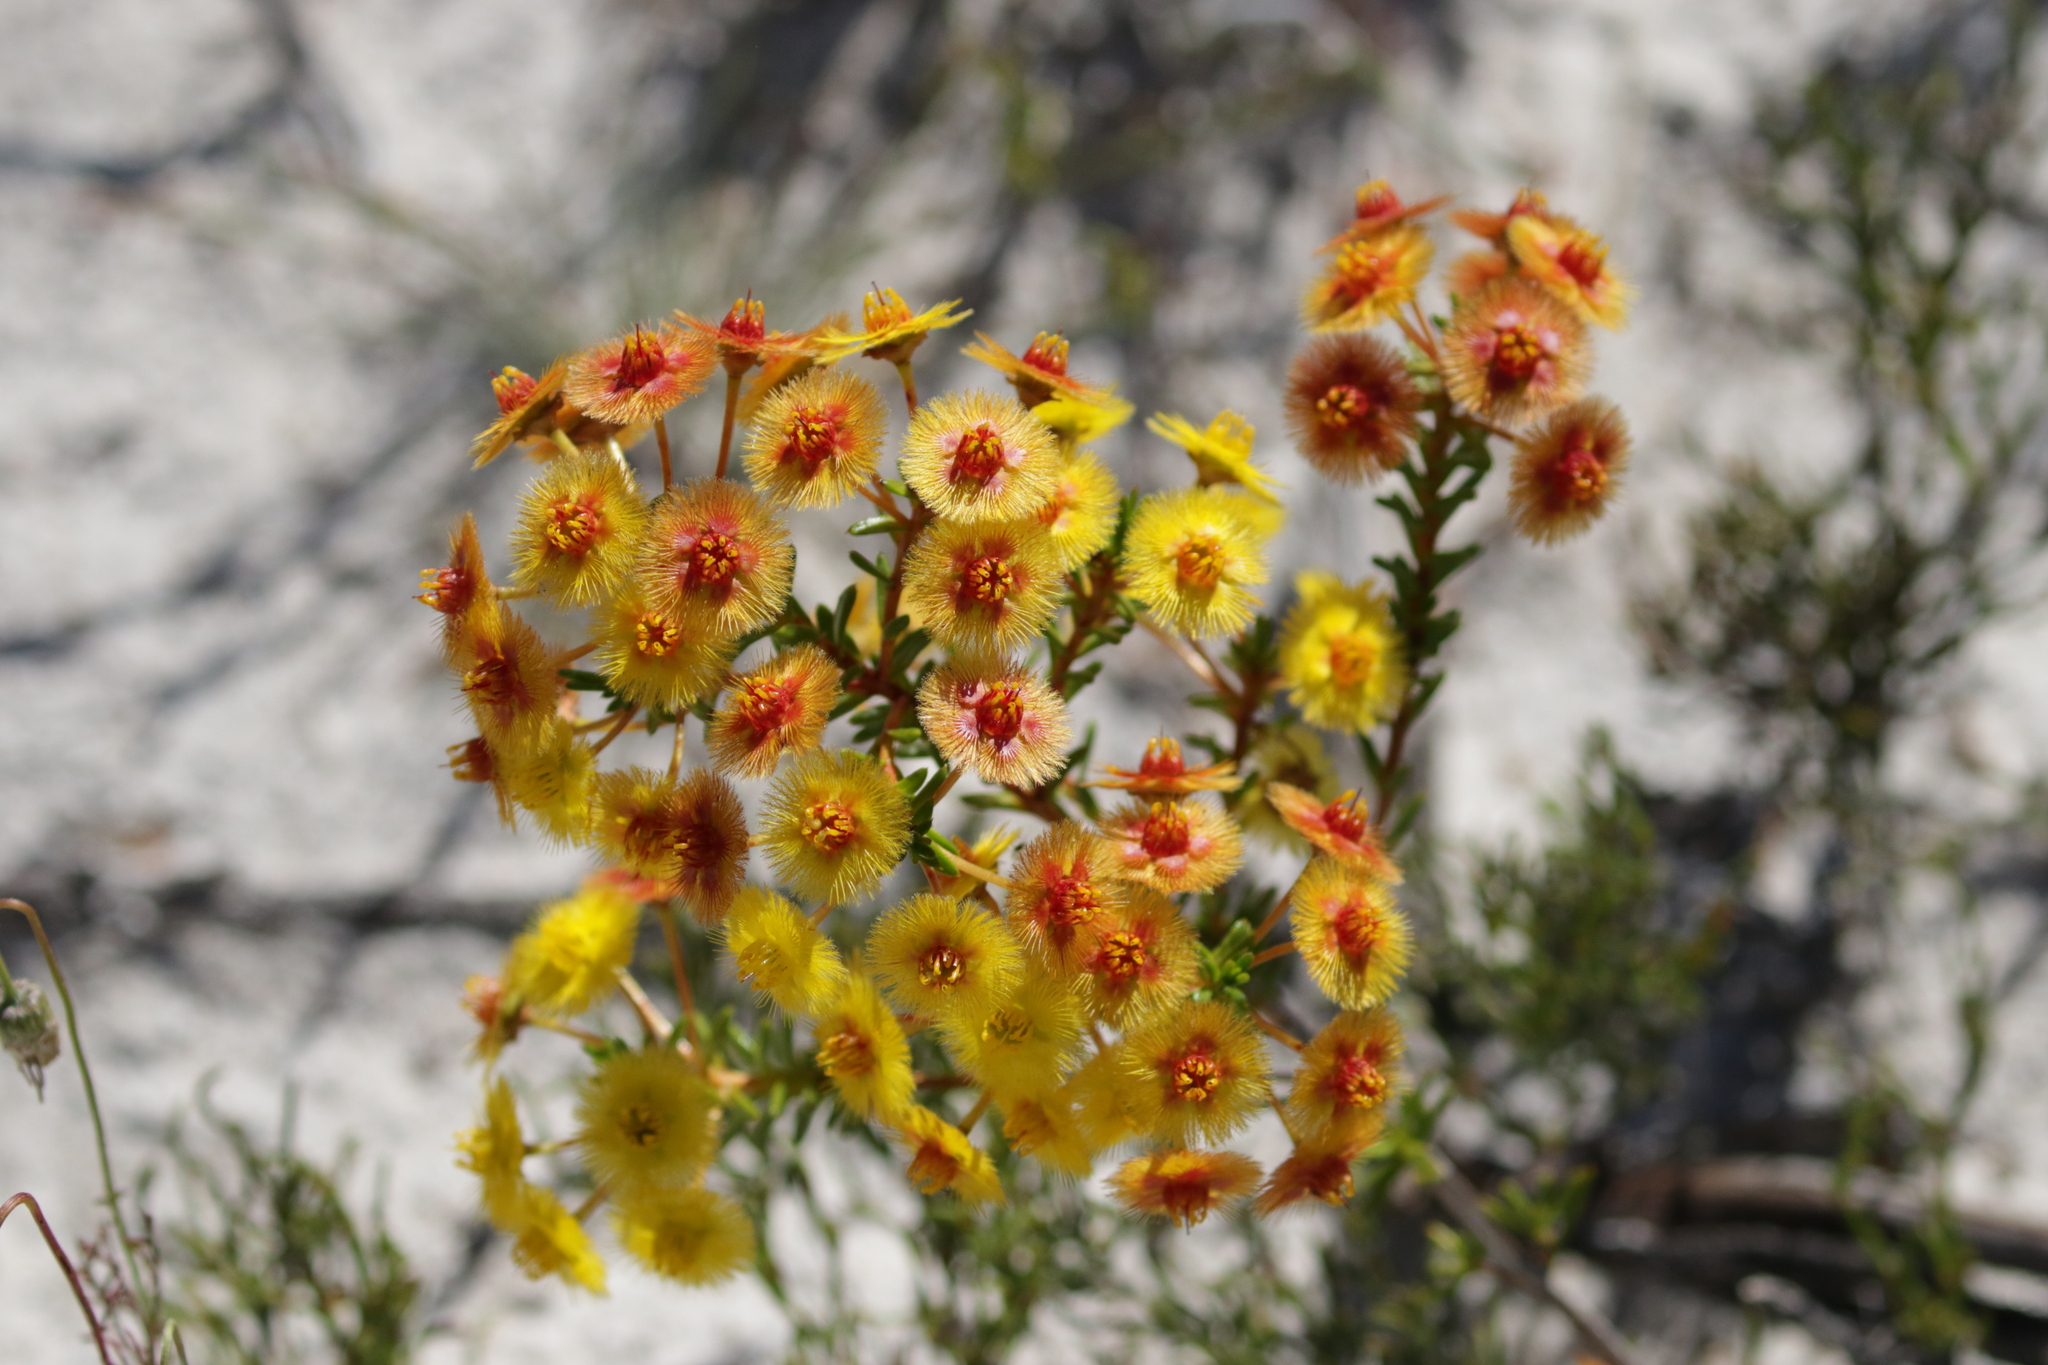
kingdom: Plantae
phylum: Tracheophyta
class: Magnoliopsida
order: Myrtales
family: Myrtaceae
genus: Verticordia
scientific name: Verticordia nobilis
